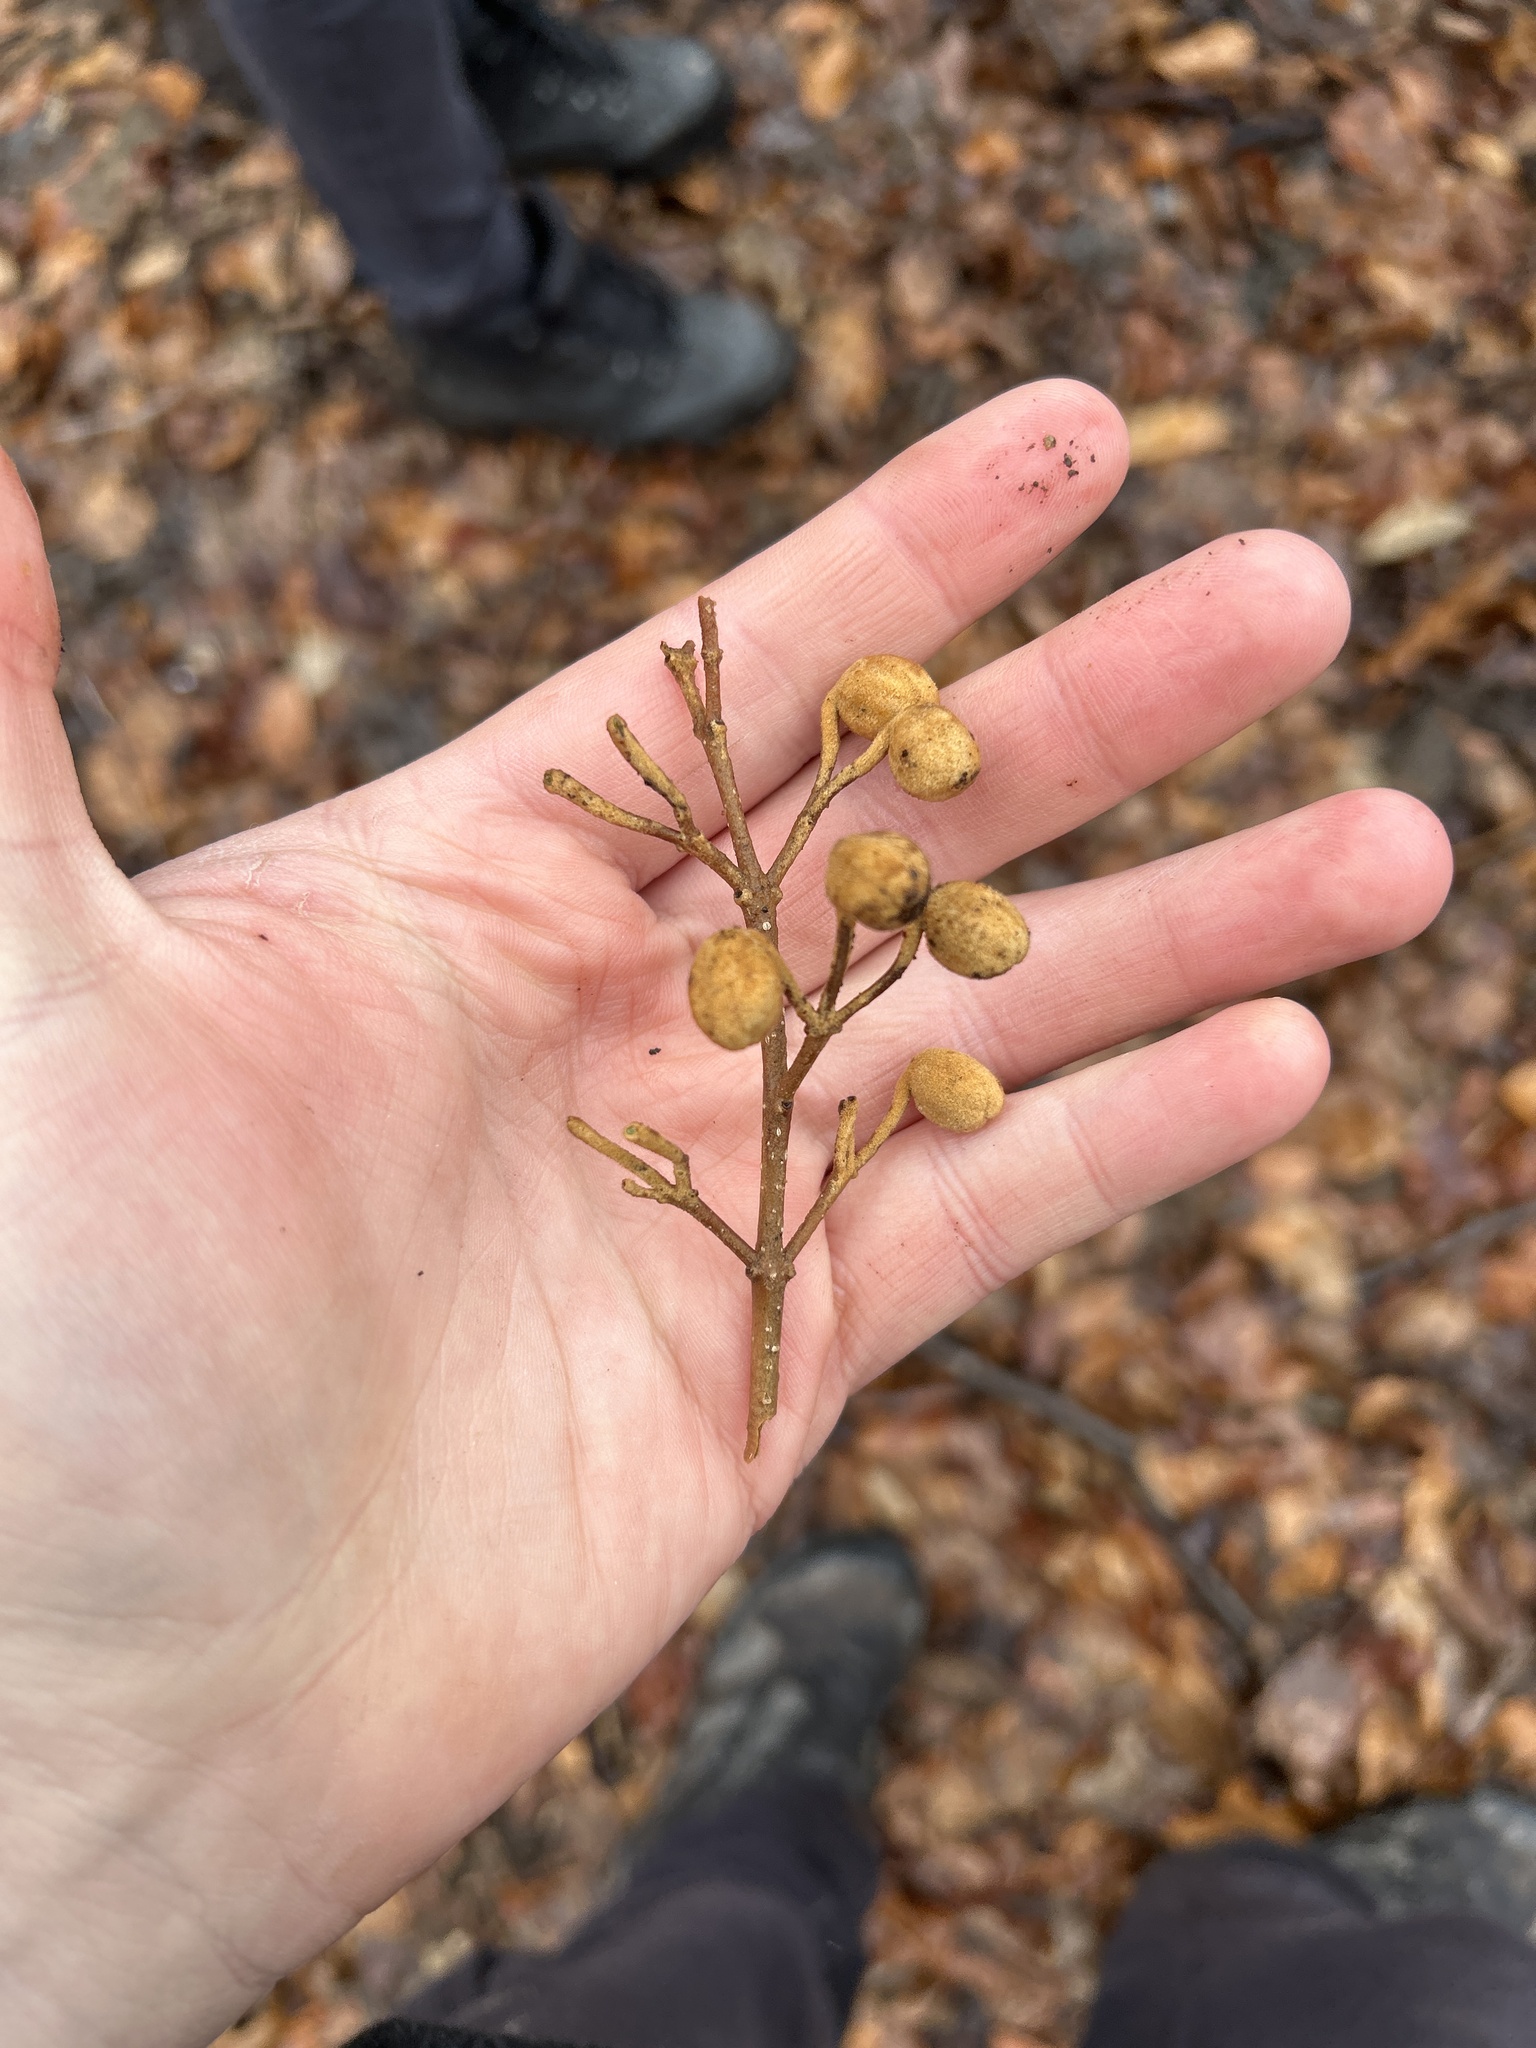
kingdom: Plantae
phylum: Tracheophyta
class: Magnoliopsida
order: Lamiales
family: Paulowniaceae
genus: Paulownia
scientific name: Paulownia tomentosa
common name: Foxglove-tree
